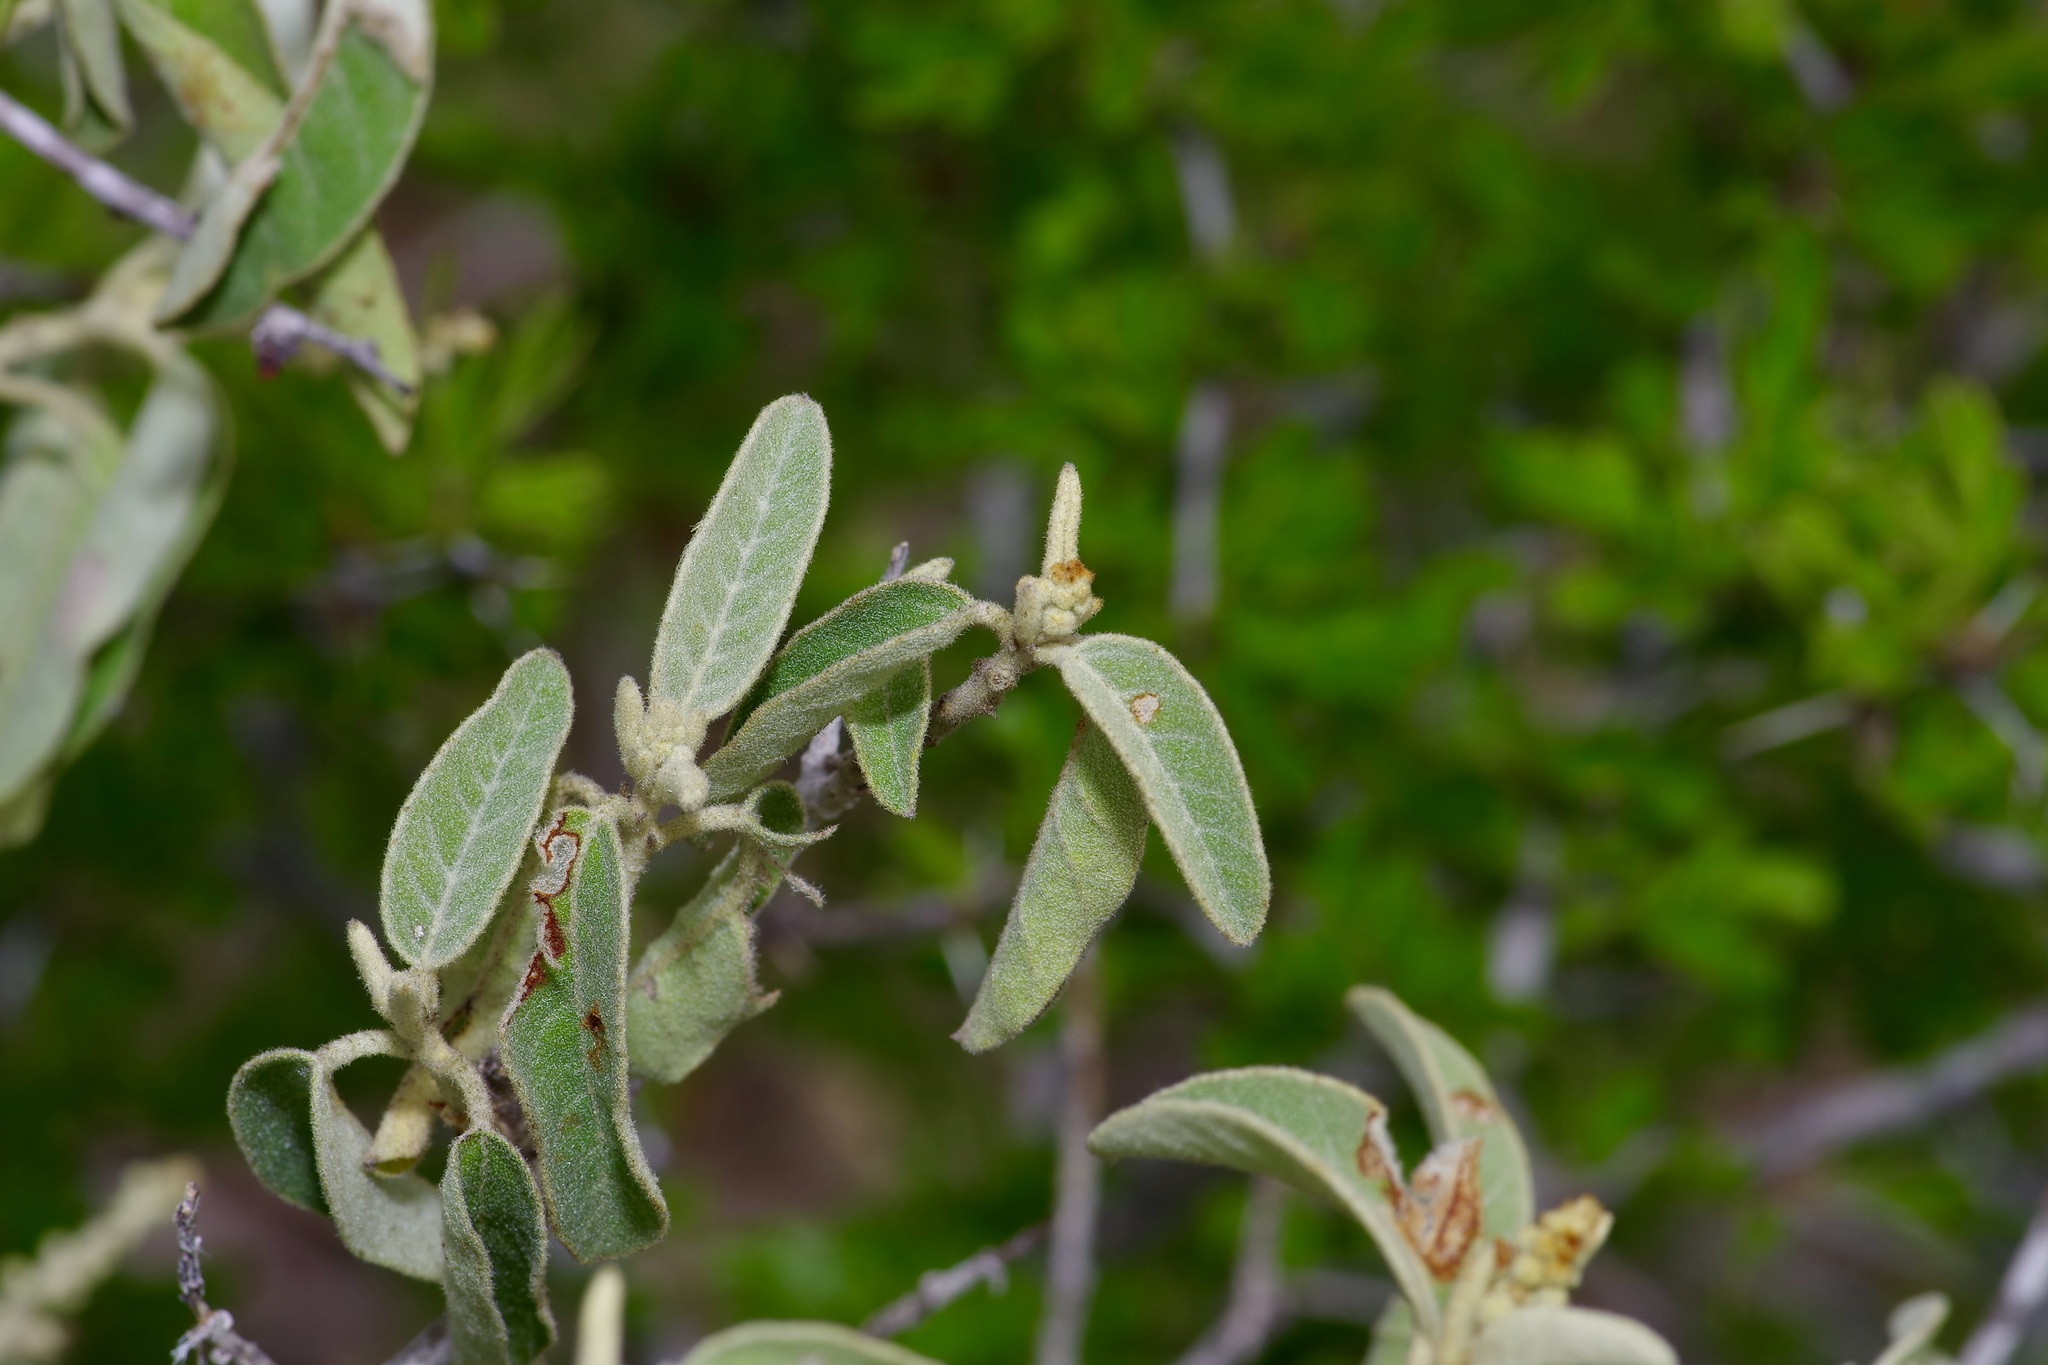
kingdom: Plantae
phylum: Tracheophyta
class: Magnoliopsida
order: Malpighiales
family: Euphorbiaceae
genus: Croton
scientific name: Croton incanus
